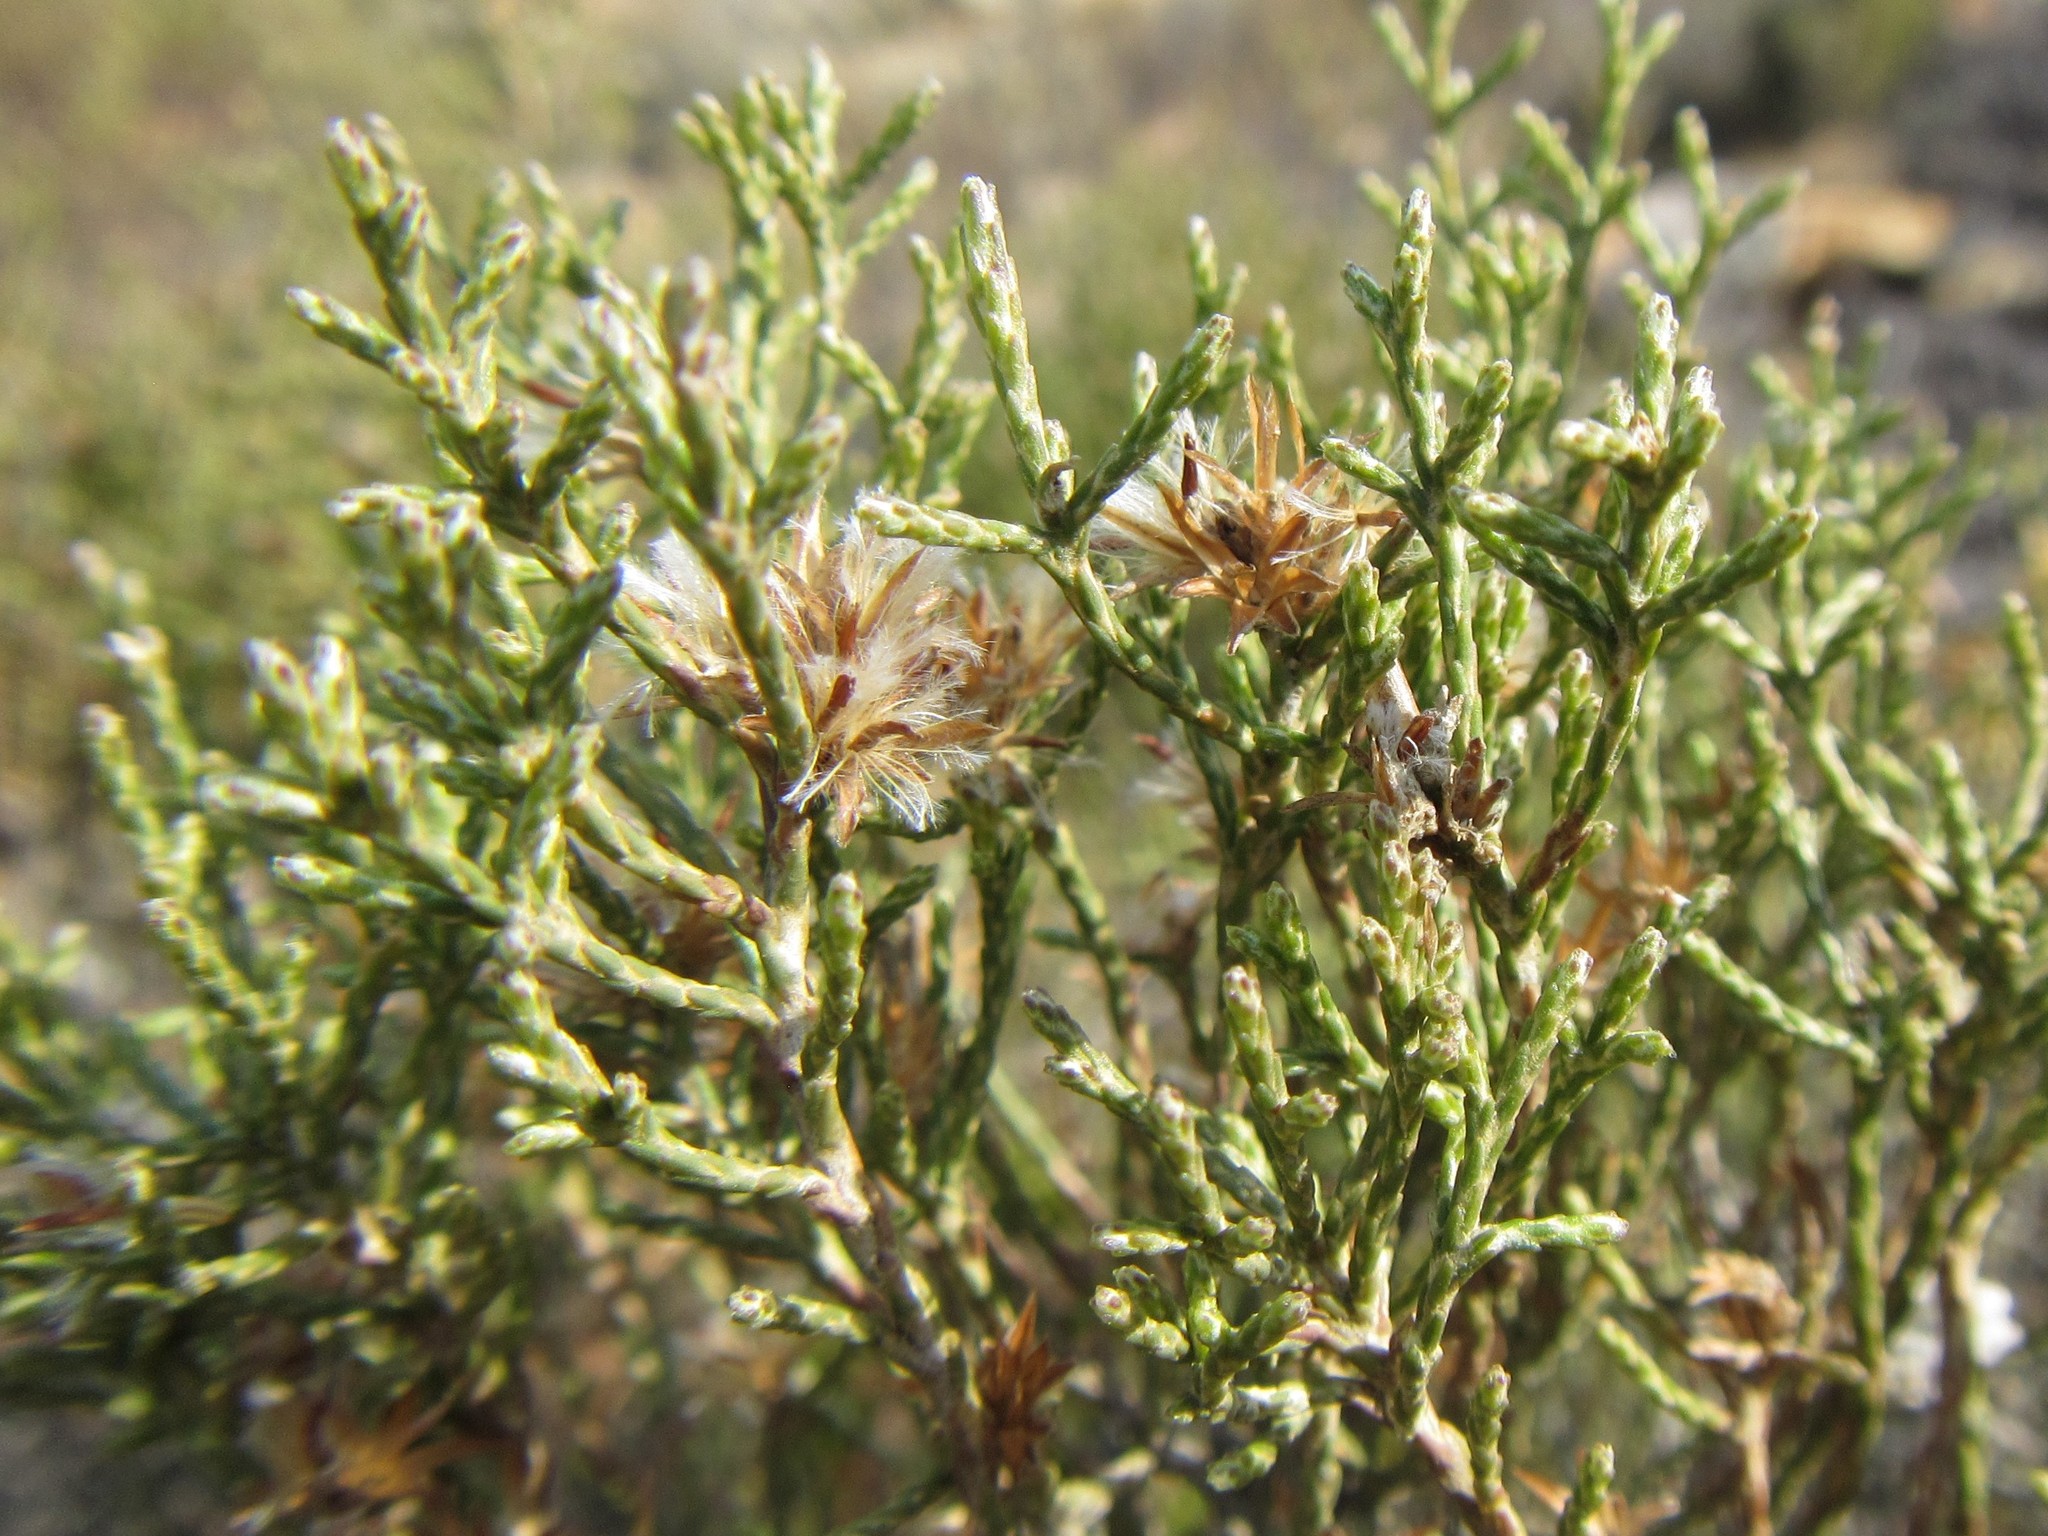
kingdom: Plantae
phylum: Tracheophyta
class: Magnoliopsida
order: Asterales
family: Asteraceae
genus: Dicerothamnus
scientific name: Dicerothamnus adpressus
